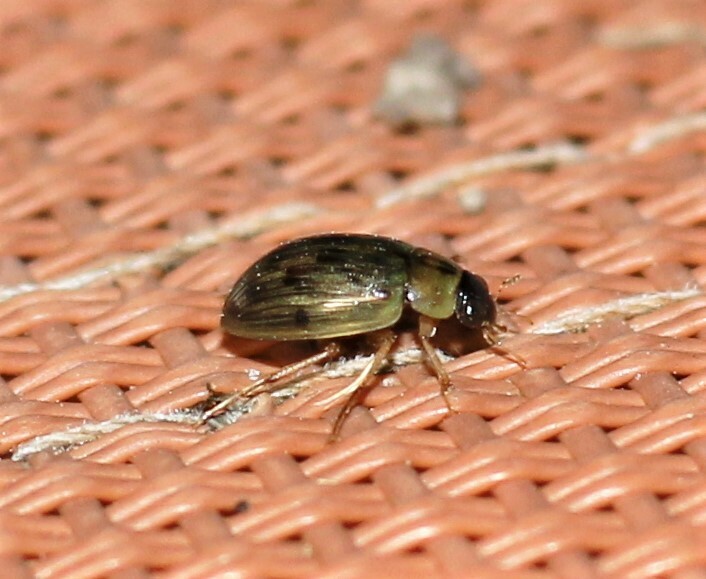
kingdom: Animalia
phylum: Arthropoda
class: Insecta
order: Coleoptera
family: Hydrophilidae
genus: Berosus
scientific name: Berosus
